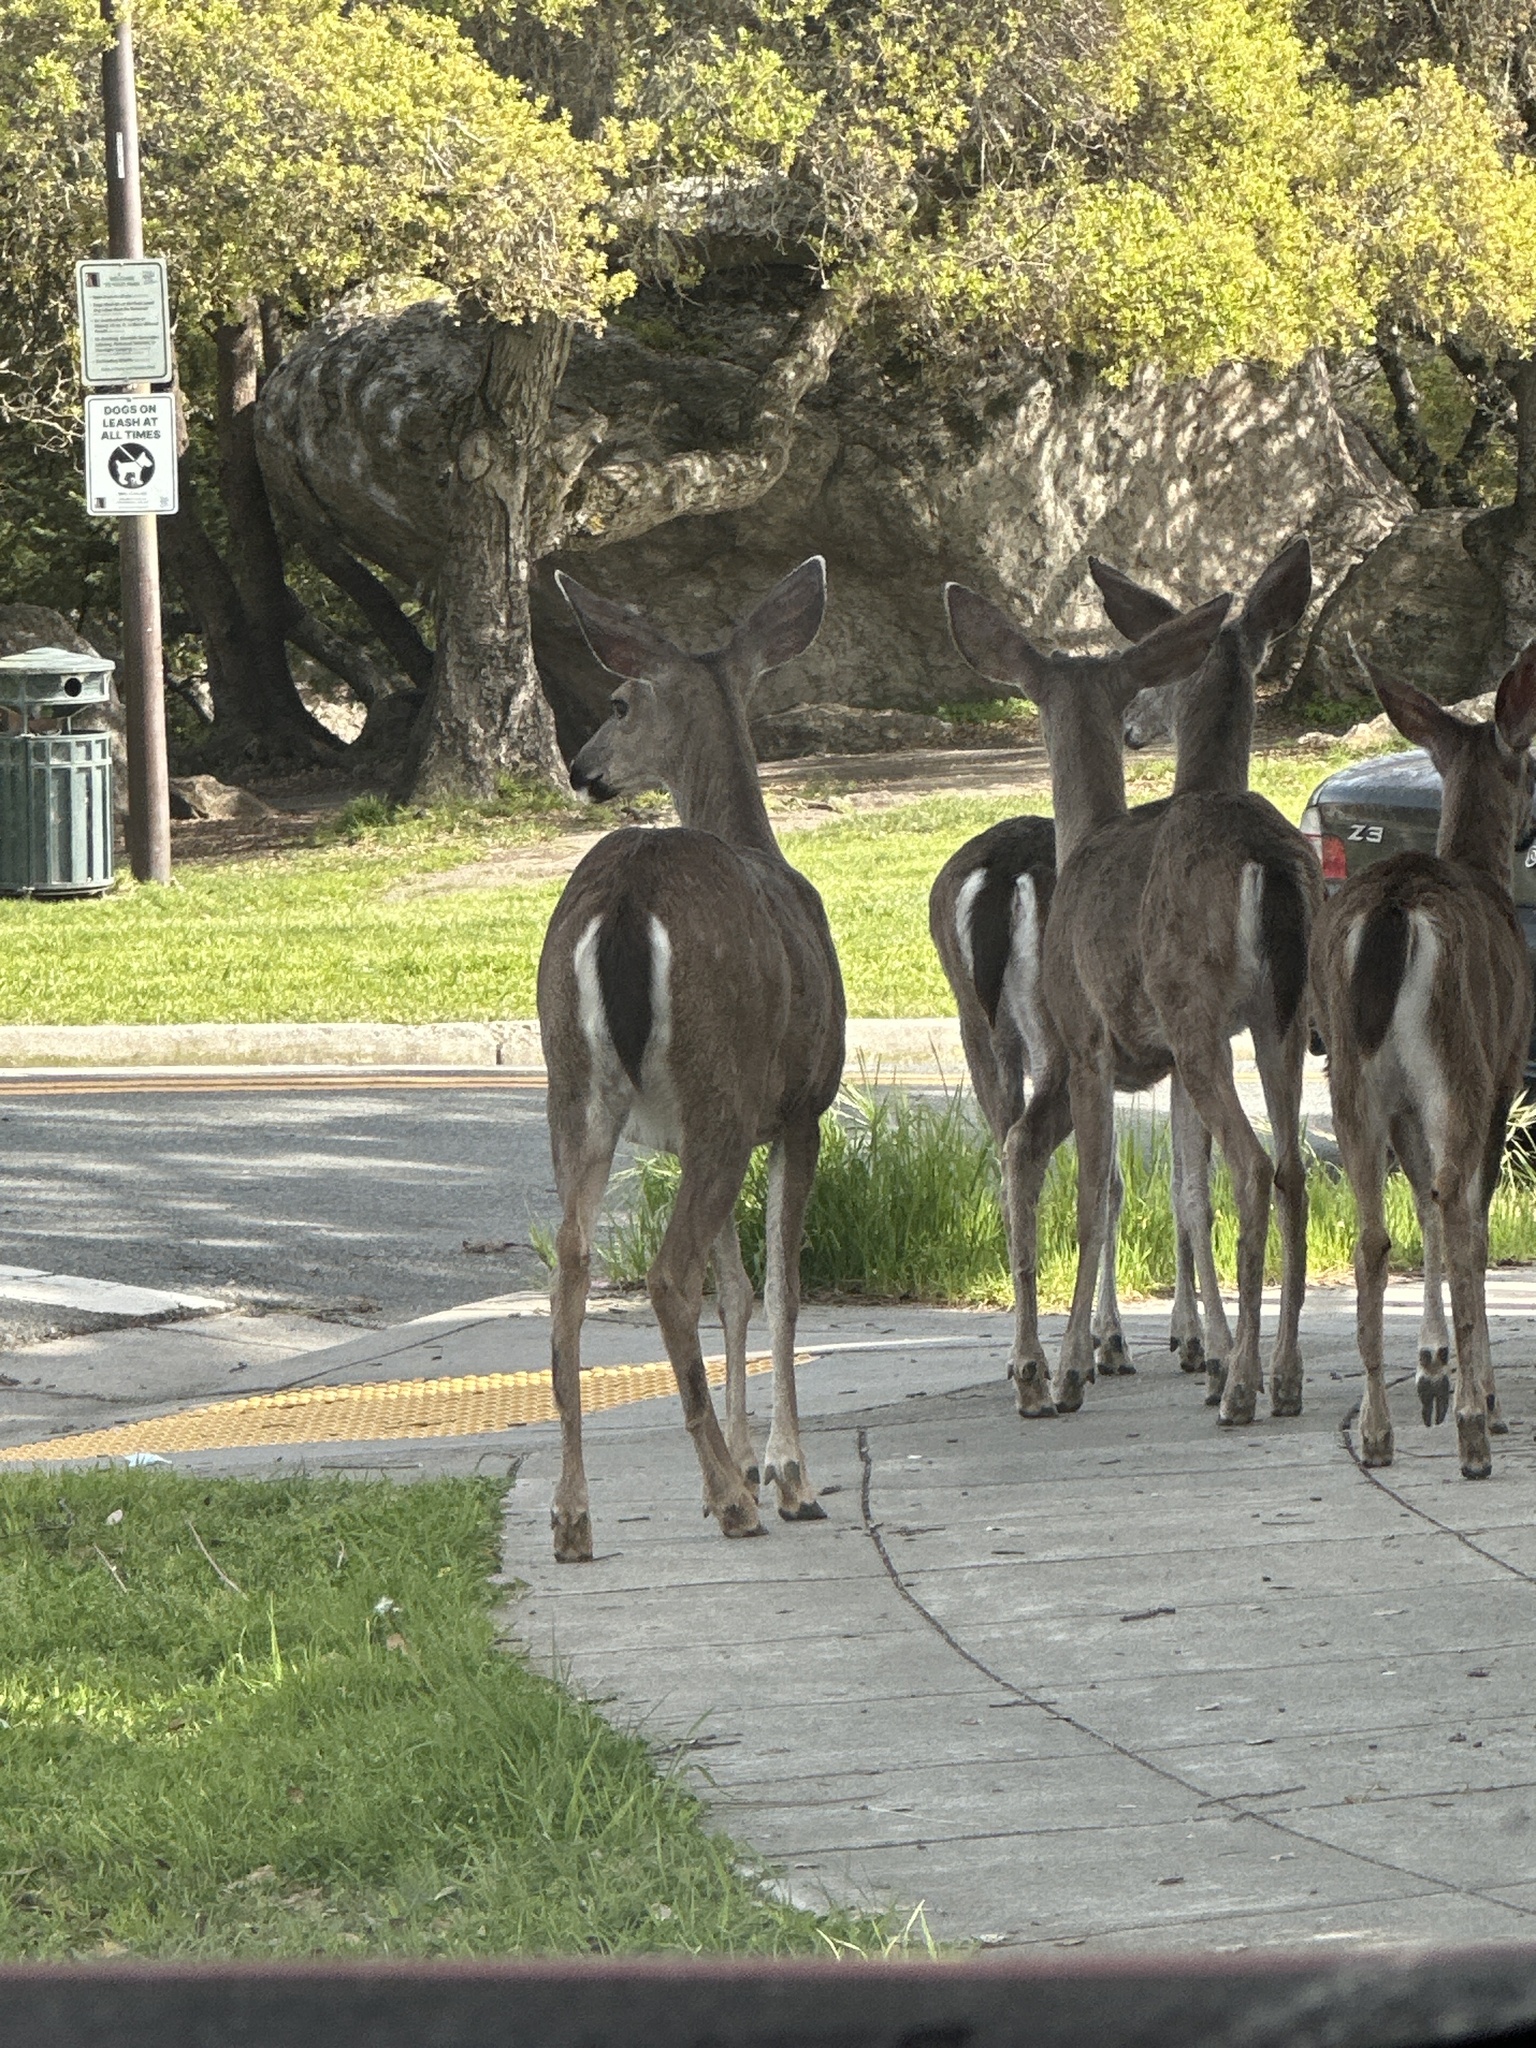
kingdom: Animalia
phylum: Chordata
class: Mammalia
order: Artiodactyla
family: Cervidae
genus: Odocoileus
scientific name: Odocoileus hemionus
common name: Mule deer
